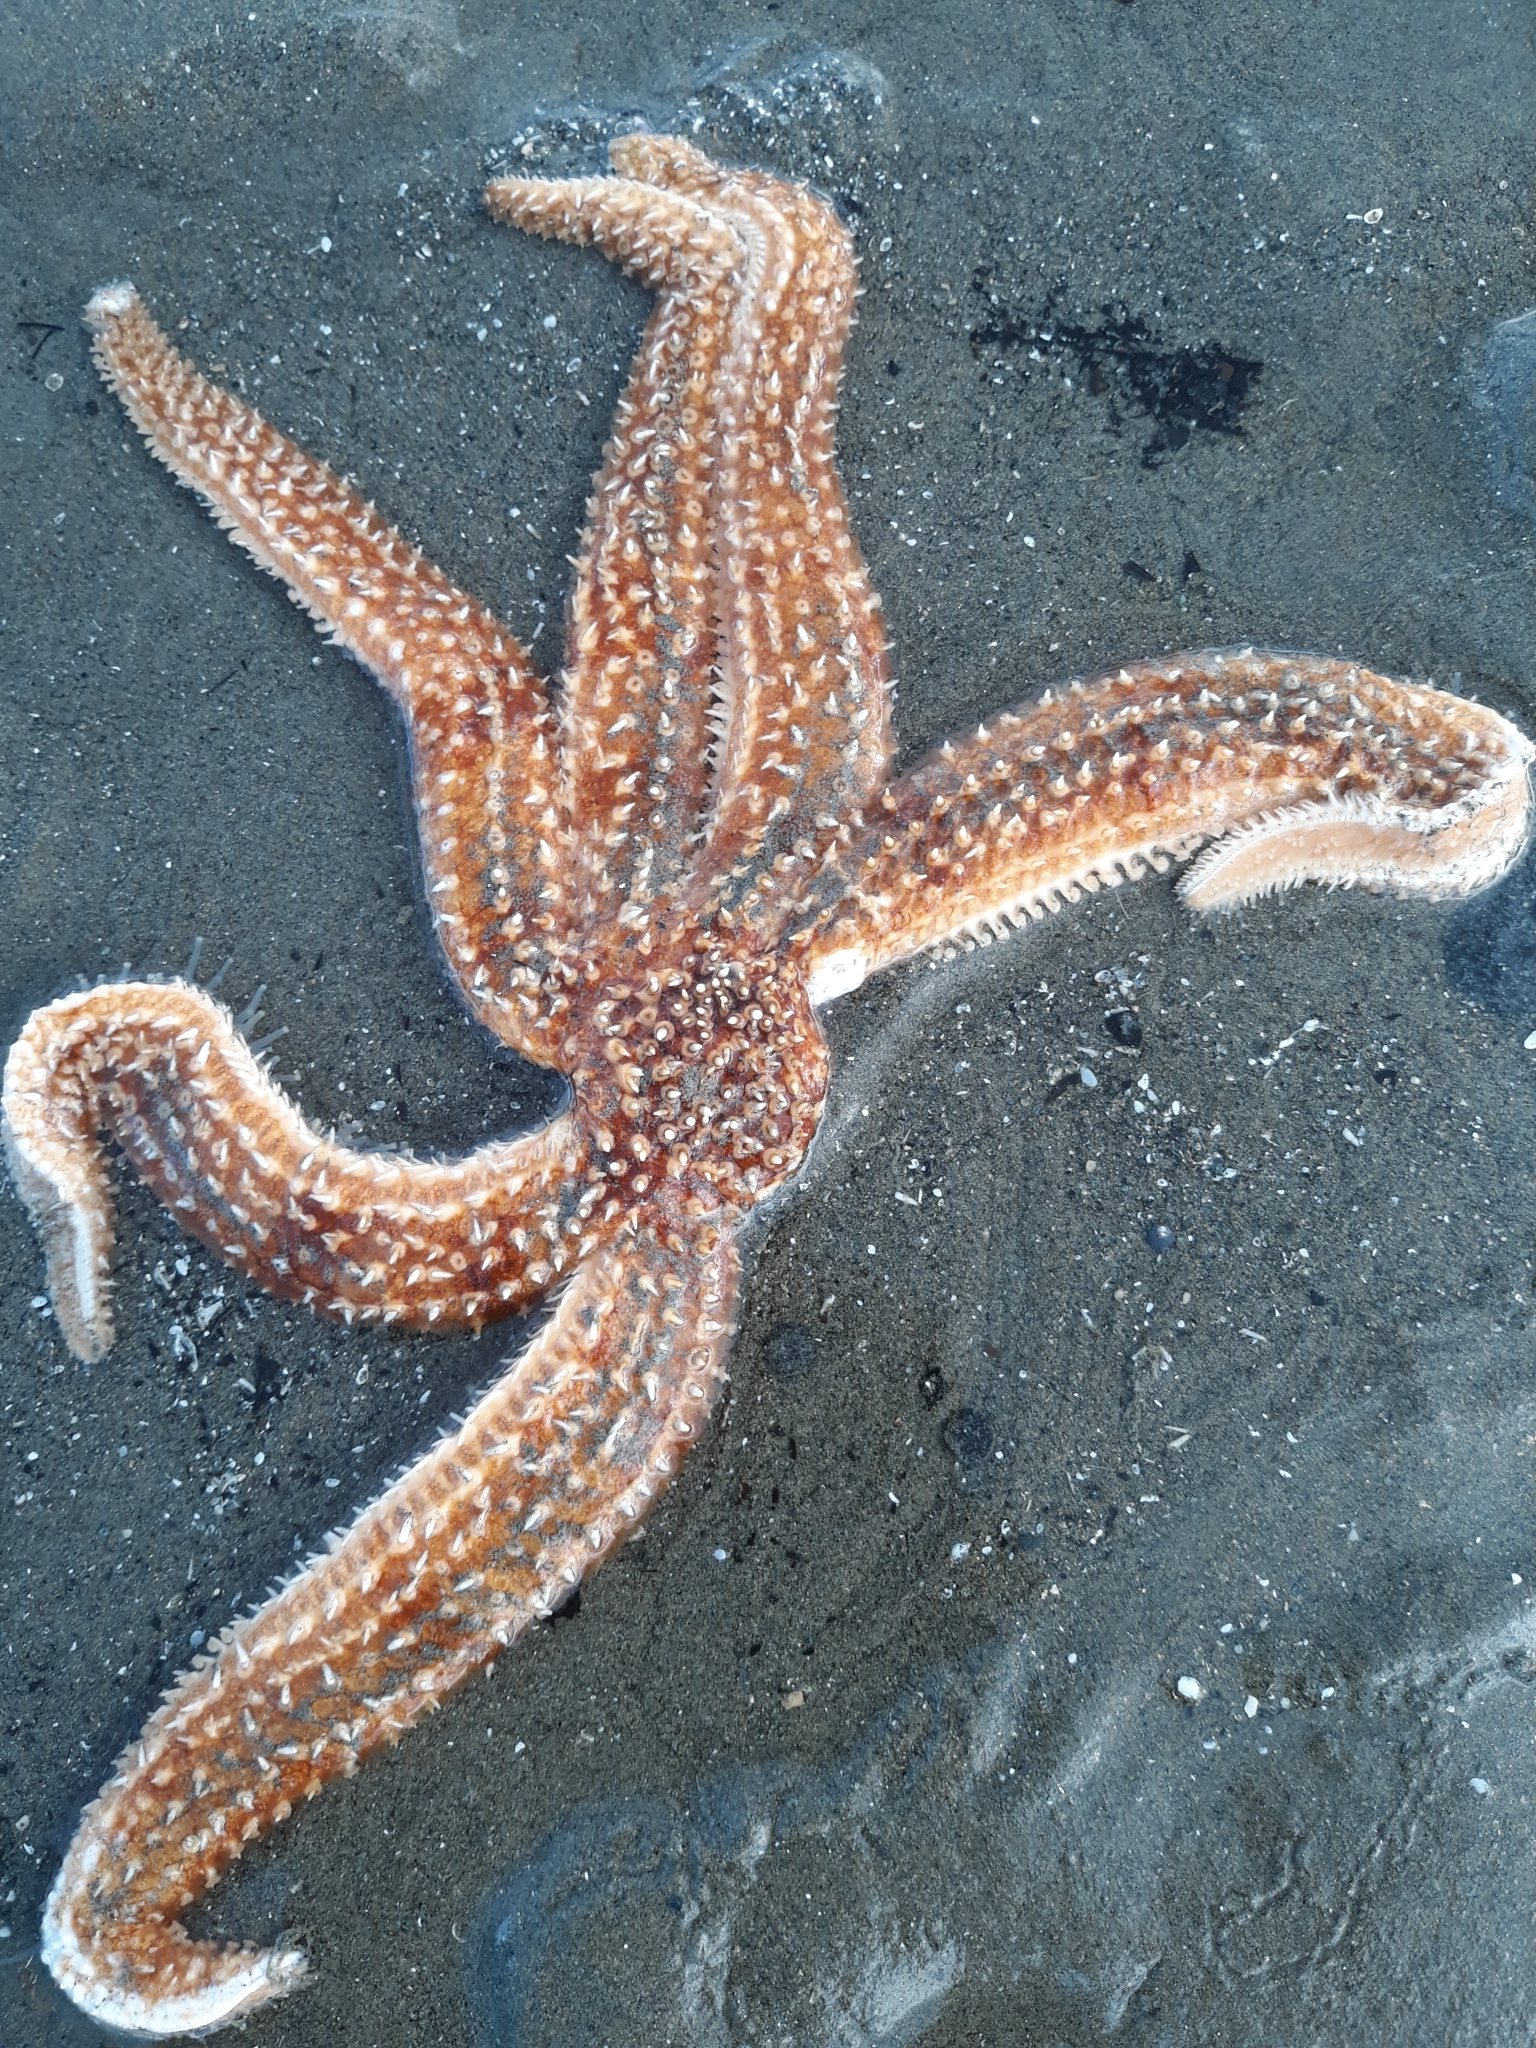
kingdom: Animalia
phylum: Echinodermata
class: Asteroidea
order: Forcipulatida
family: Asteriidae
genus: Coscinasterias
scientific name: Coscinasterias muricata
